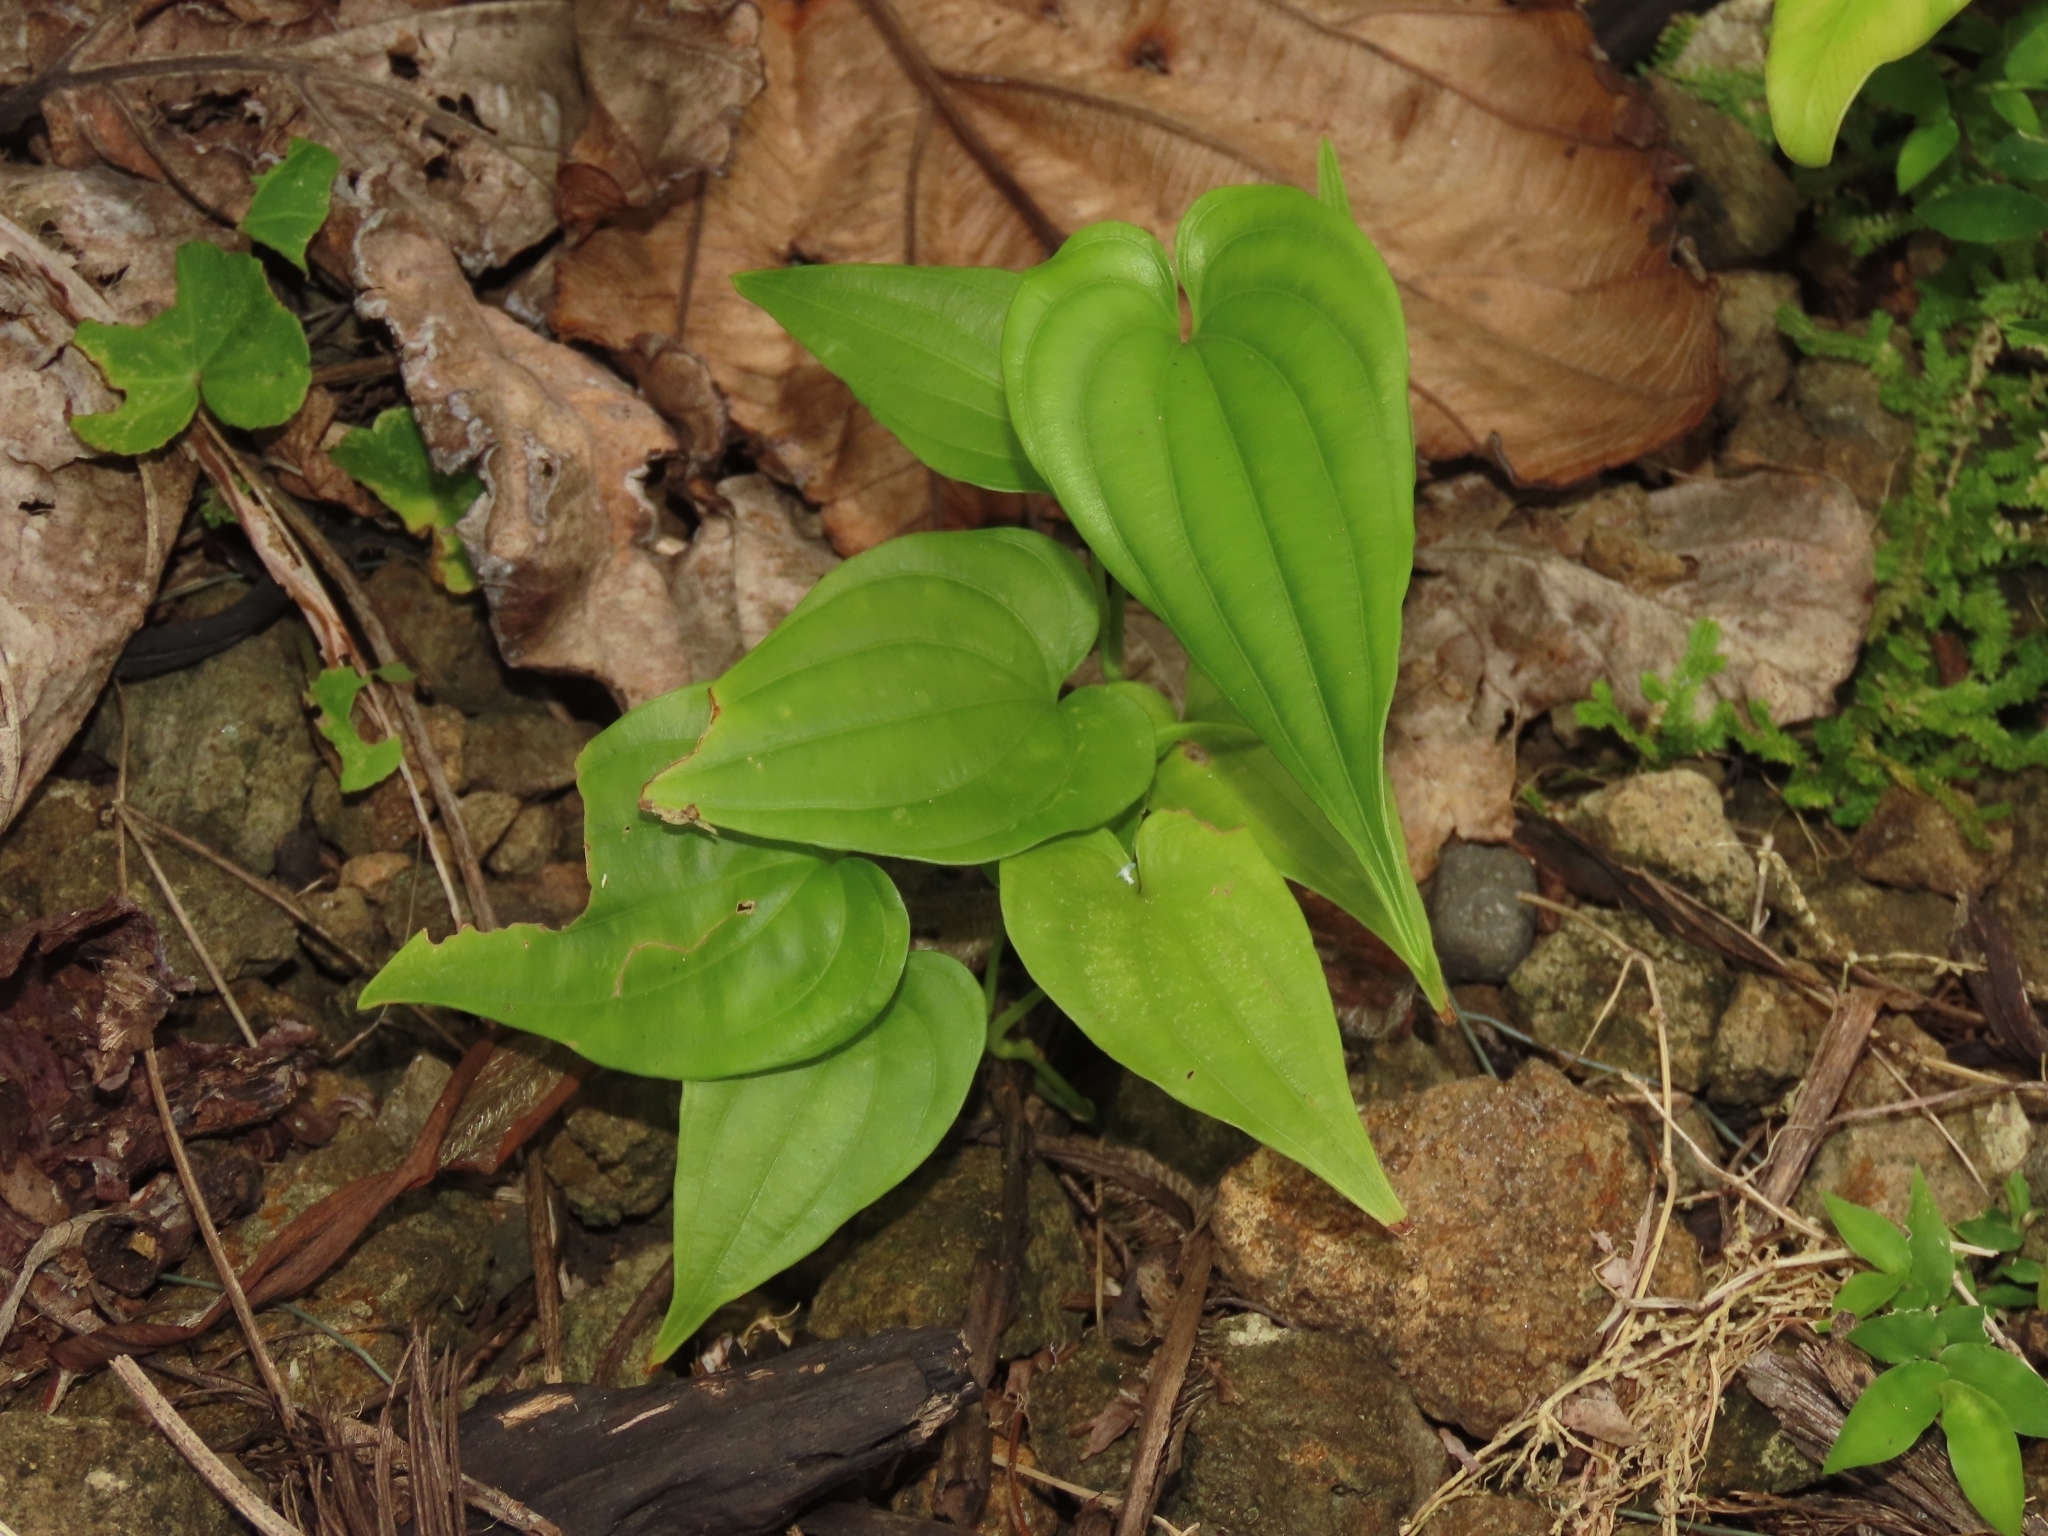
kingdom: Plantae
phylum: Tracheophyta
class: Liliopsida
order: Pandanales
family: Stemonaceae
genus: Stemona
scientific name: Stemona tuberosa
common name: Stemona
